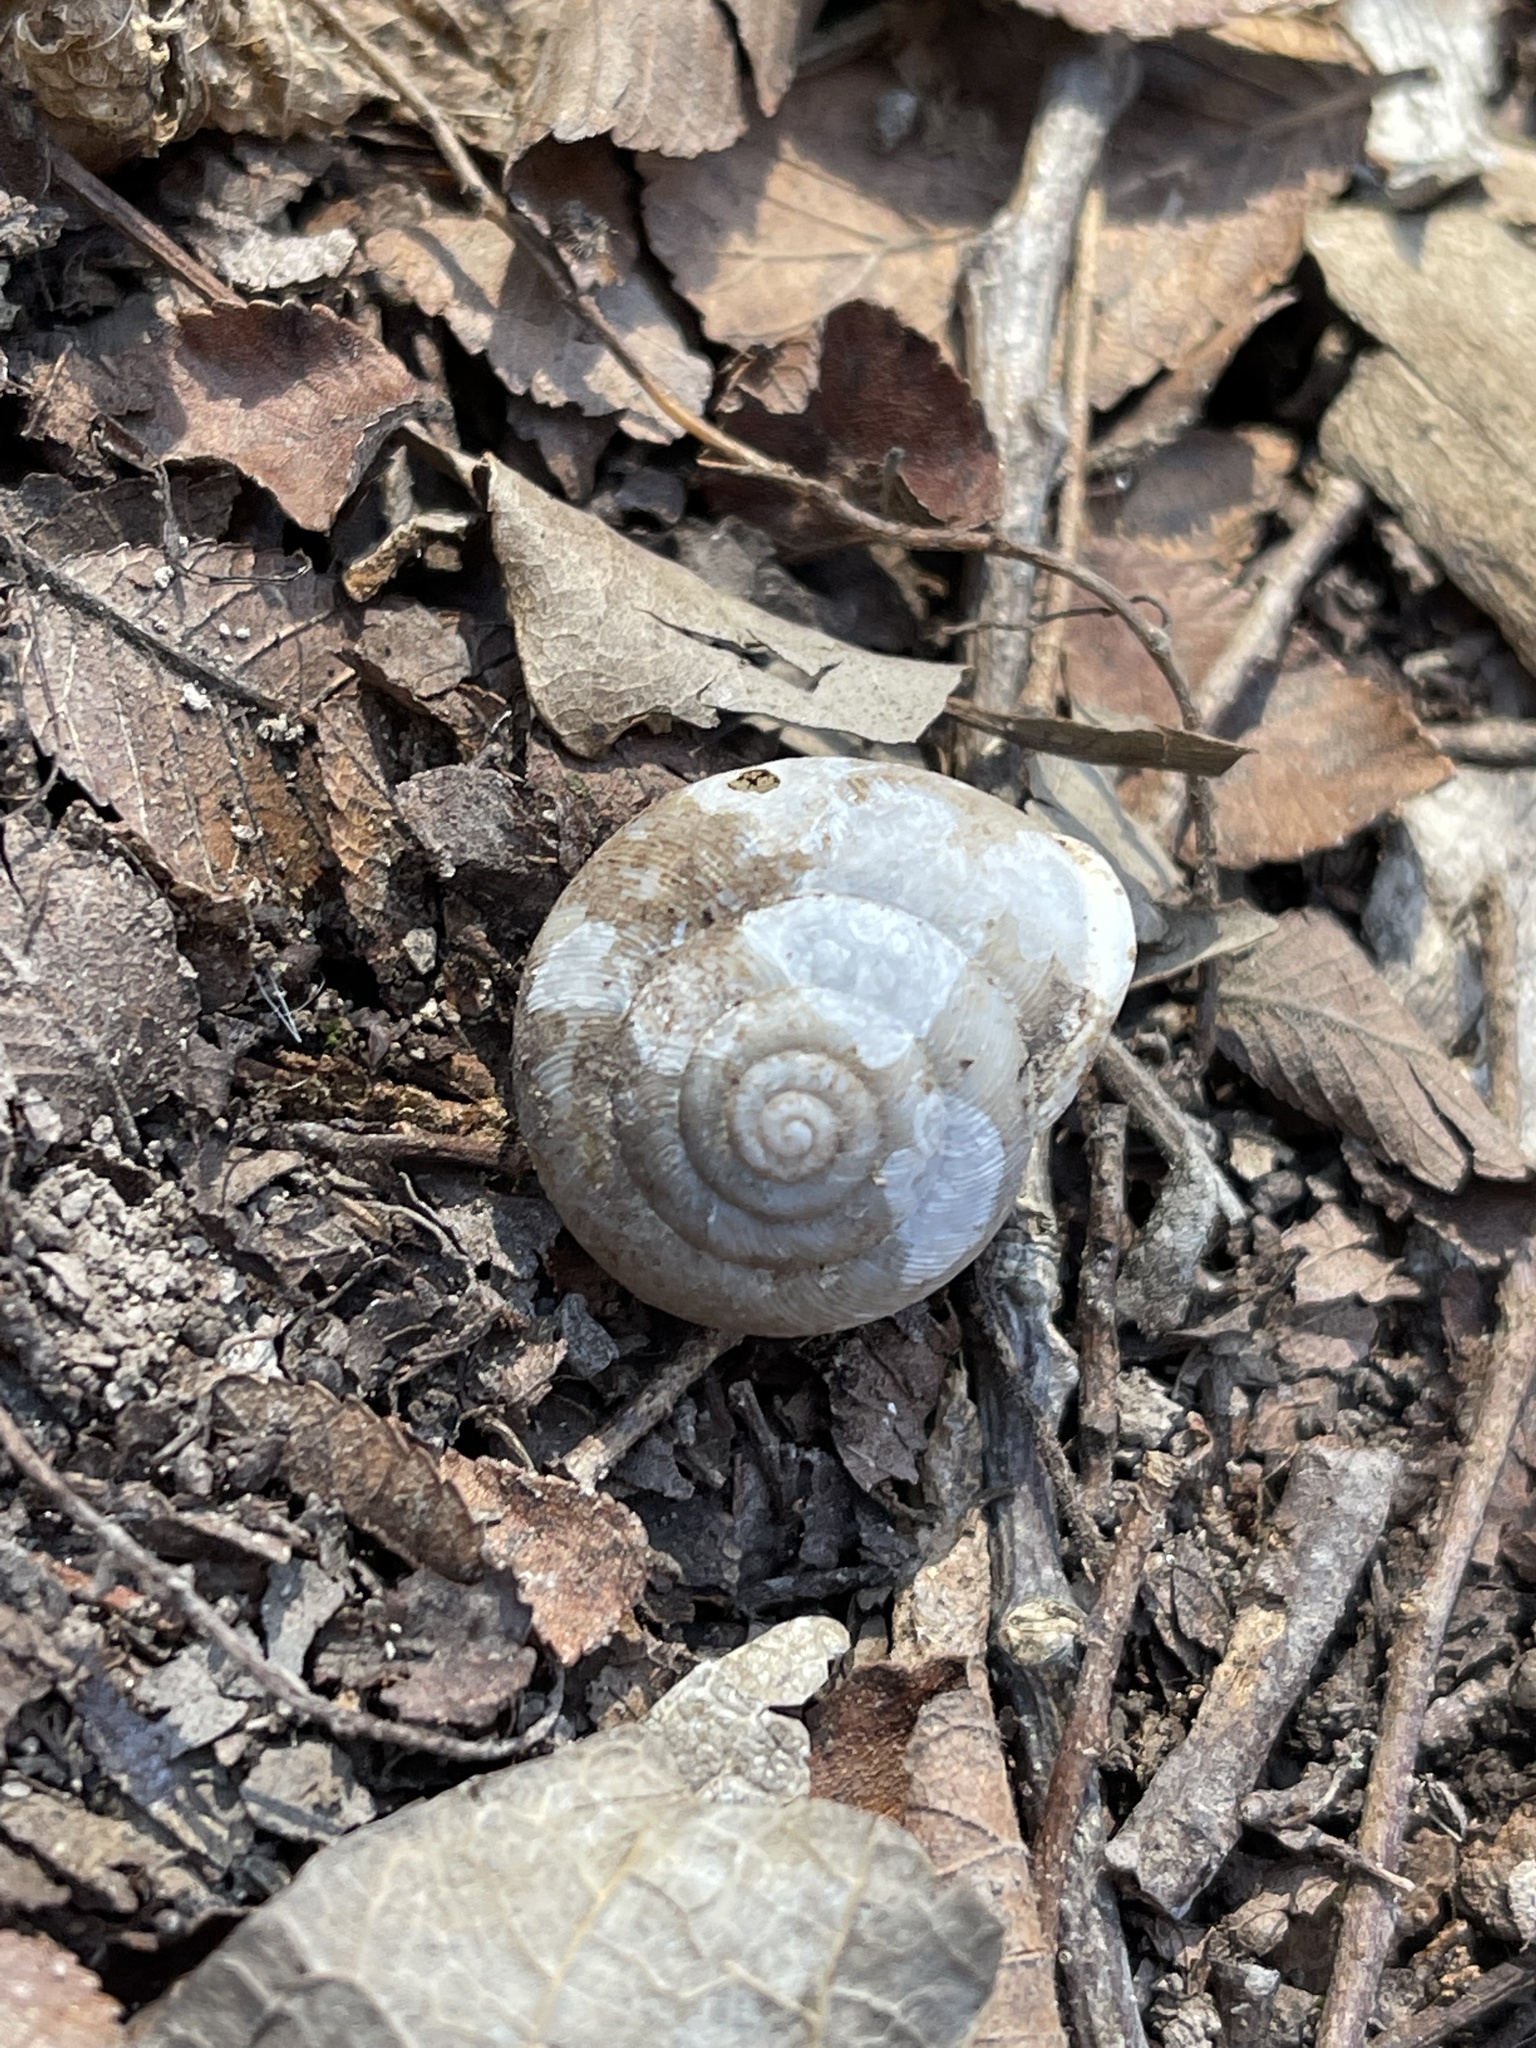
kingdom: Animalia
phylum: Mollusca
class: Gastropoda
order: Stylommatophora
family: Polygyridae
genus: Patera
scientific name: Patera roemeri
